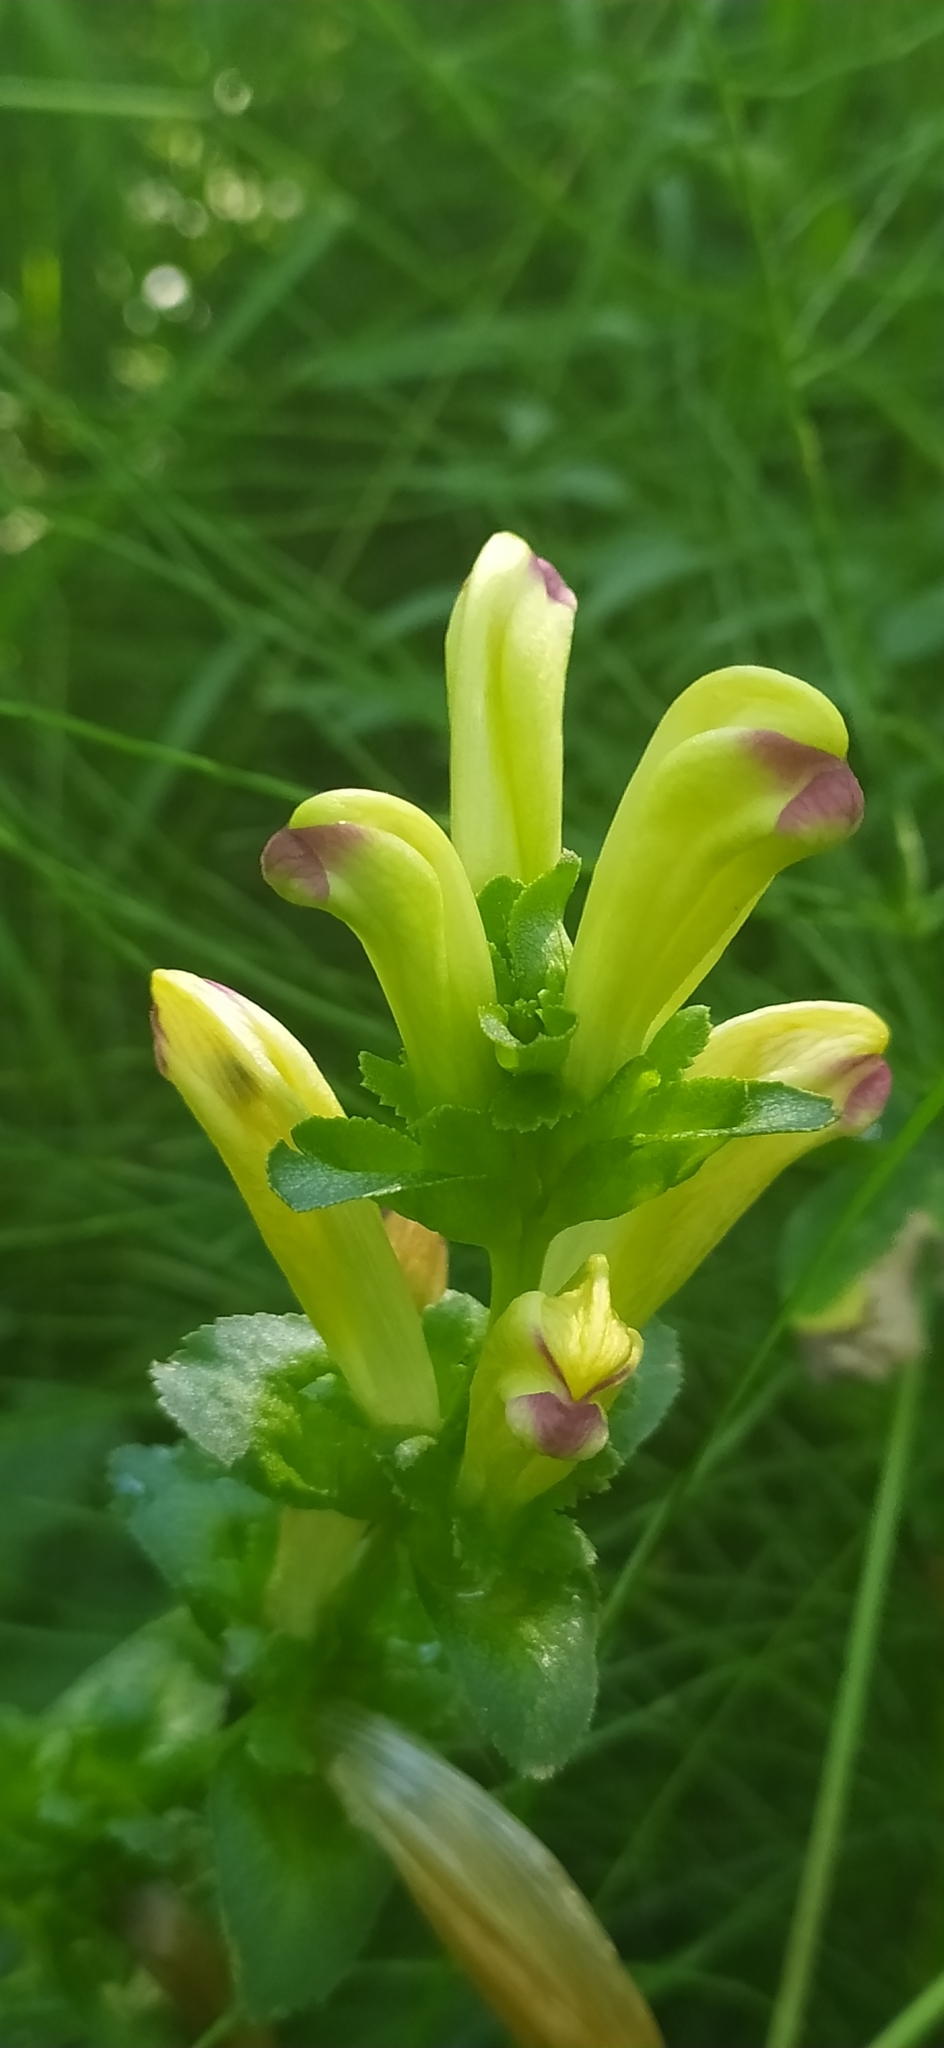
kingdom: Plantae
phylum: Tracheophyta
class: Magnoliopsida
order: Lamiales
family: Orobanchaceae
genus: Pedicularis
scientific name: Pedicularis sceptrum-carolinum
